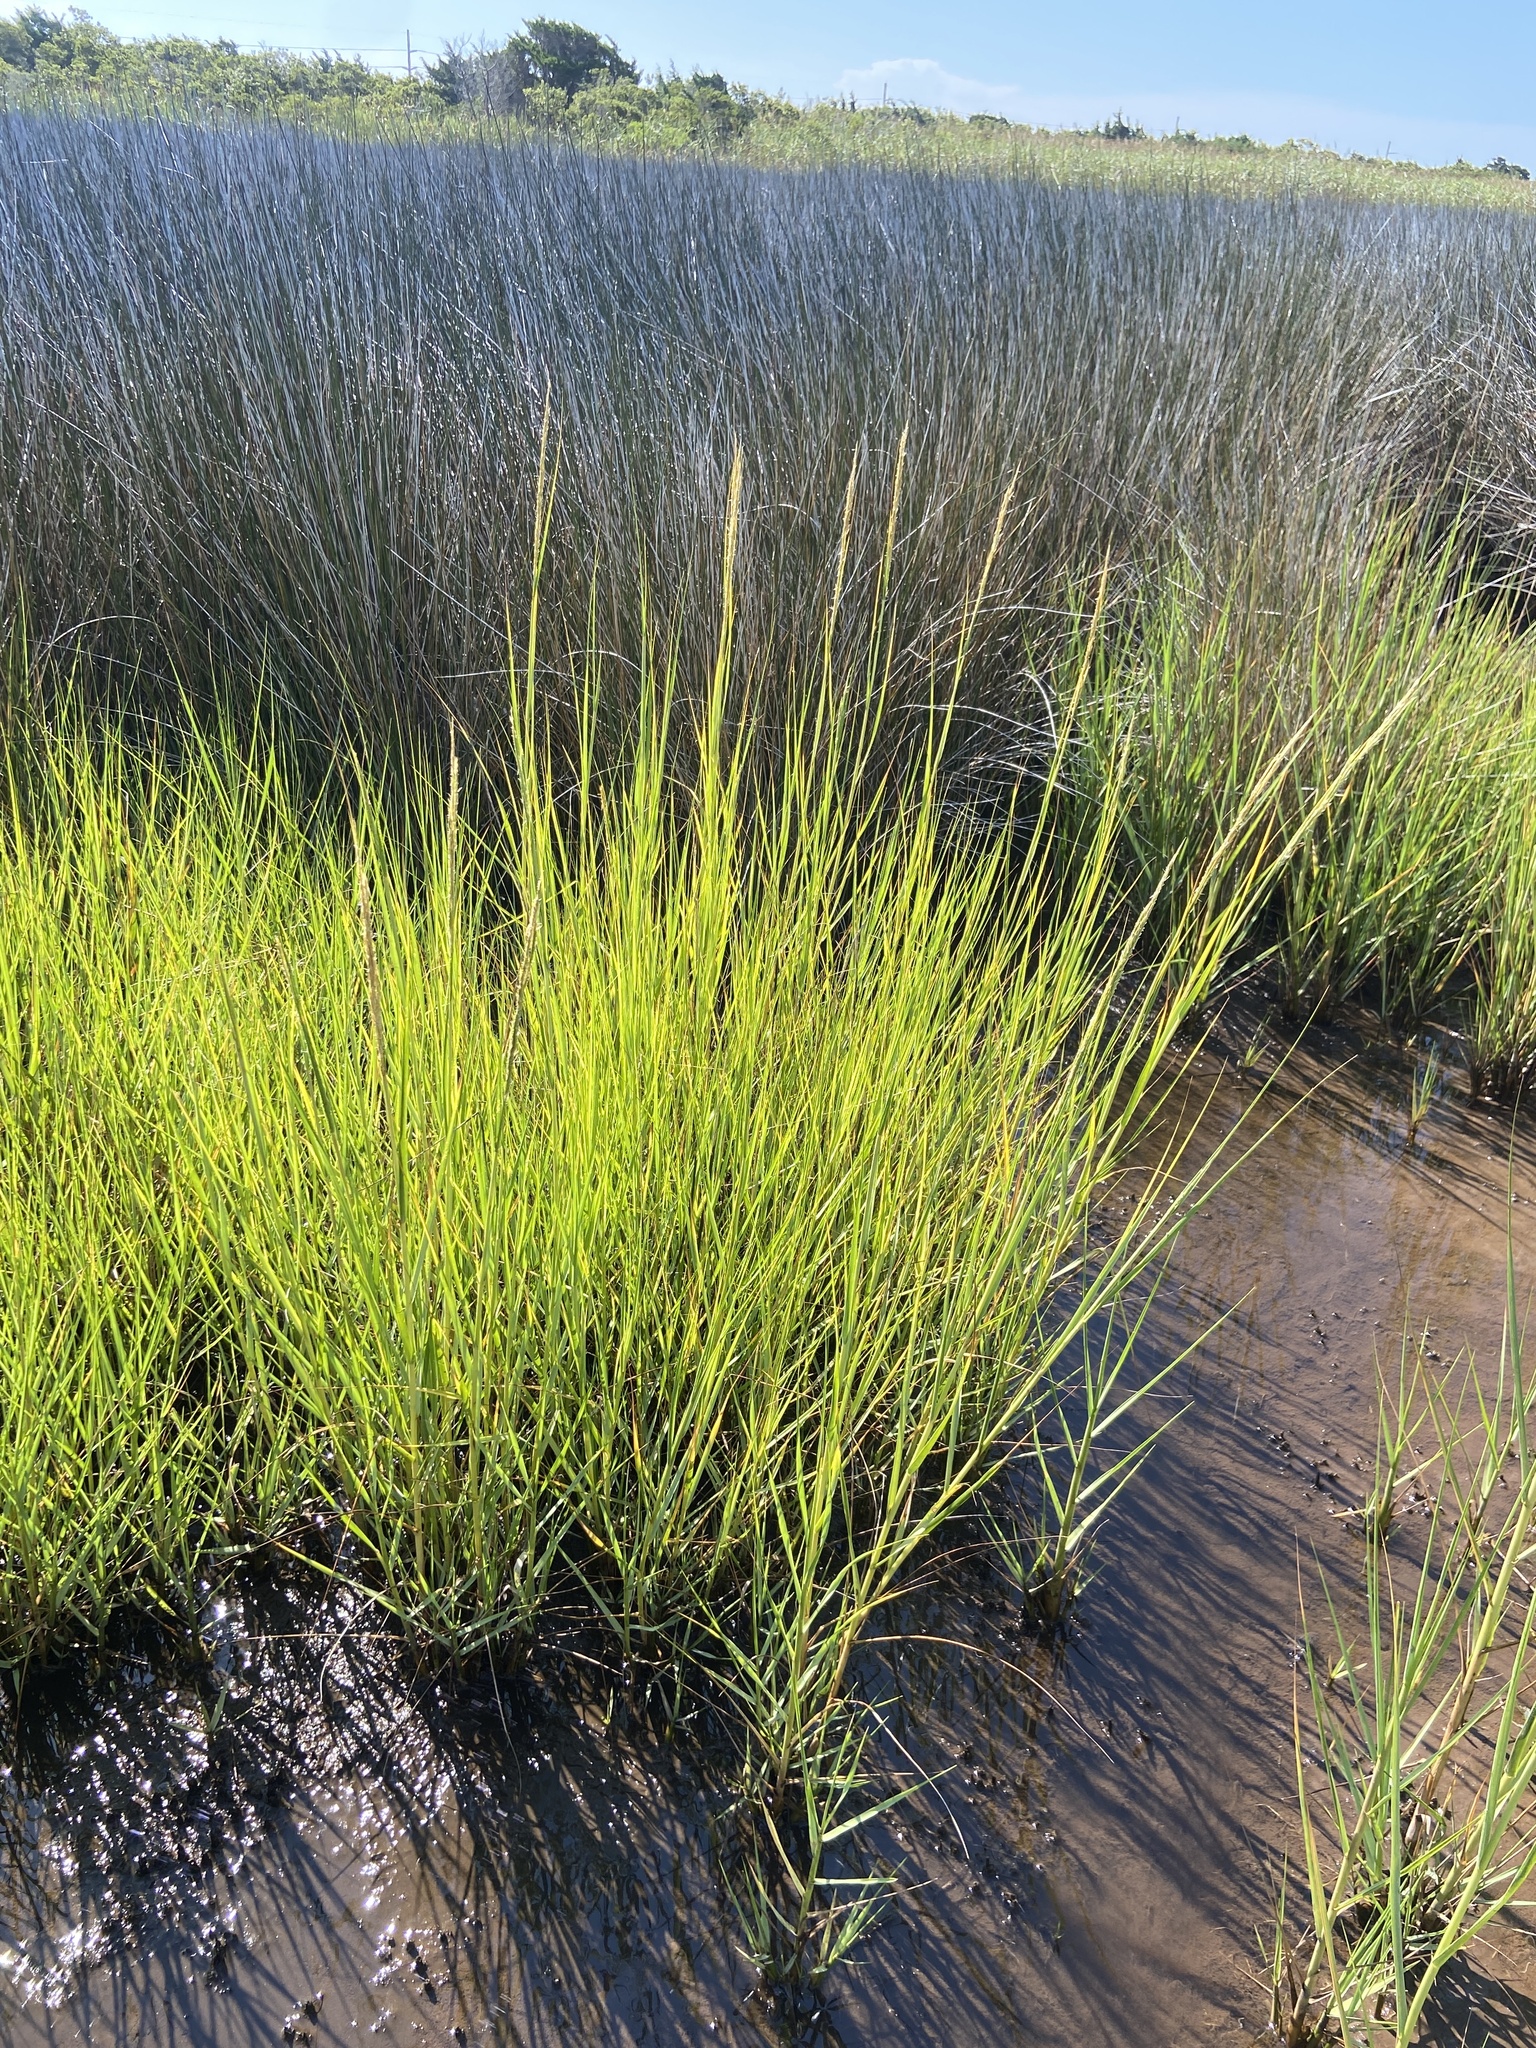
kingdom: Plantae
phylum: Tracheophyta
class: Liliopsida
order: Poales
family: Poaceae
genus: Sporobolus
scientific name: Sporobolus alterniflorus
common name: Atlantic cordgrass
